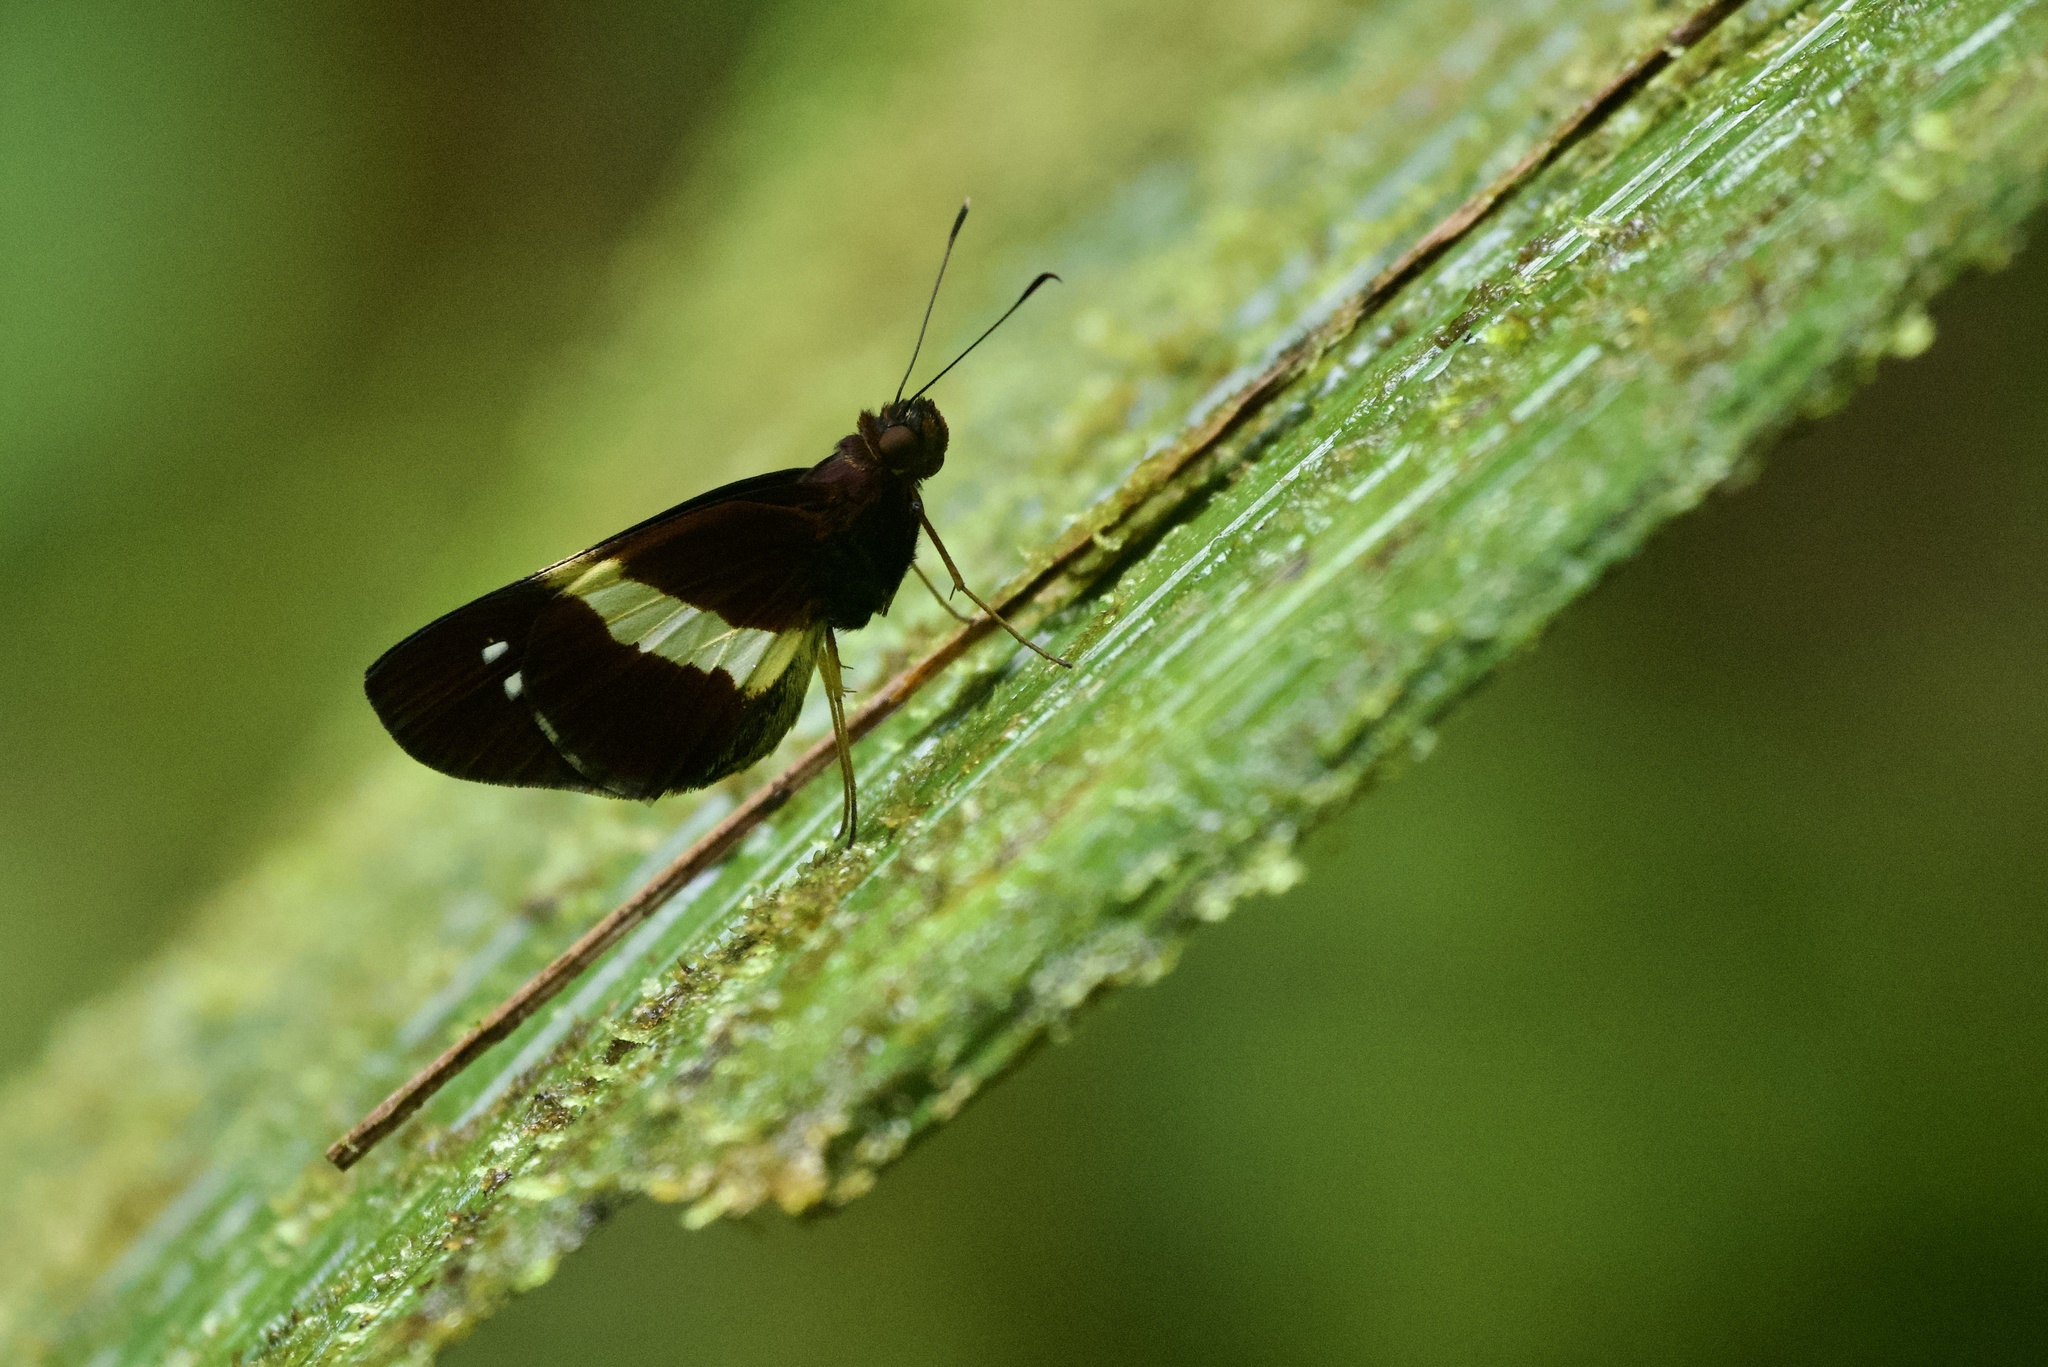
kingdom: Animalia
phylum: Arthropoda
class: Insecta
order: Lepidoptera
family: Hesperiidae
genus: Dubiella
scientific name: Dubiella fiscella
